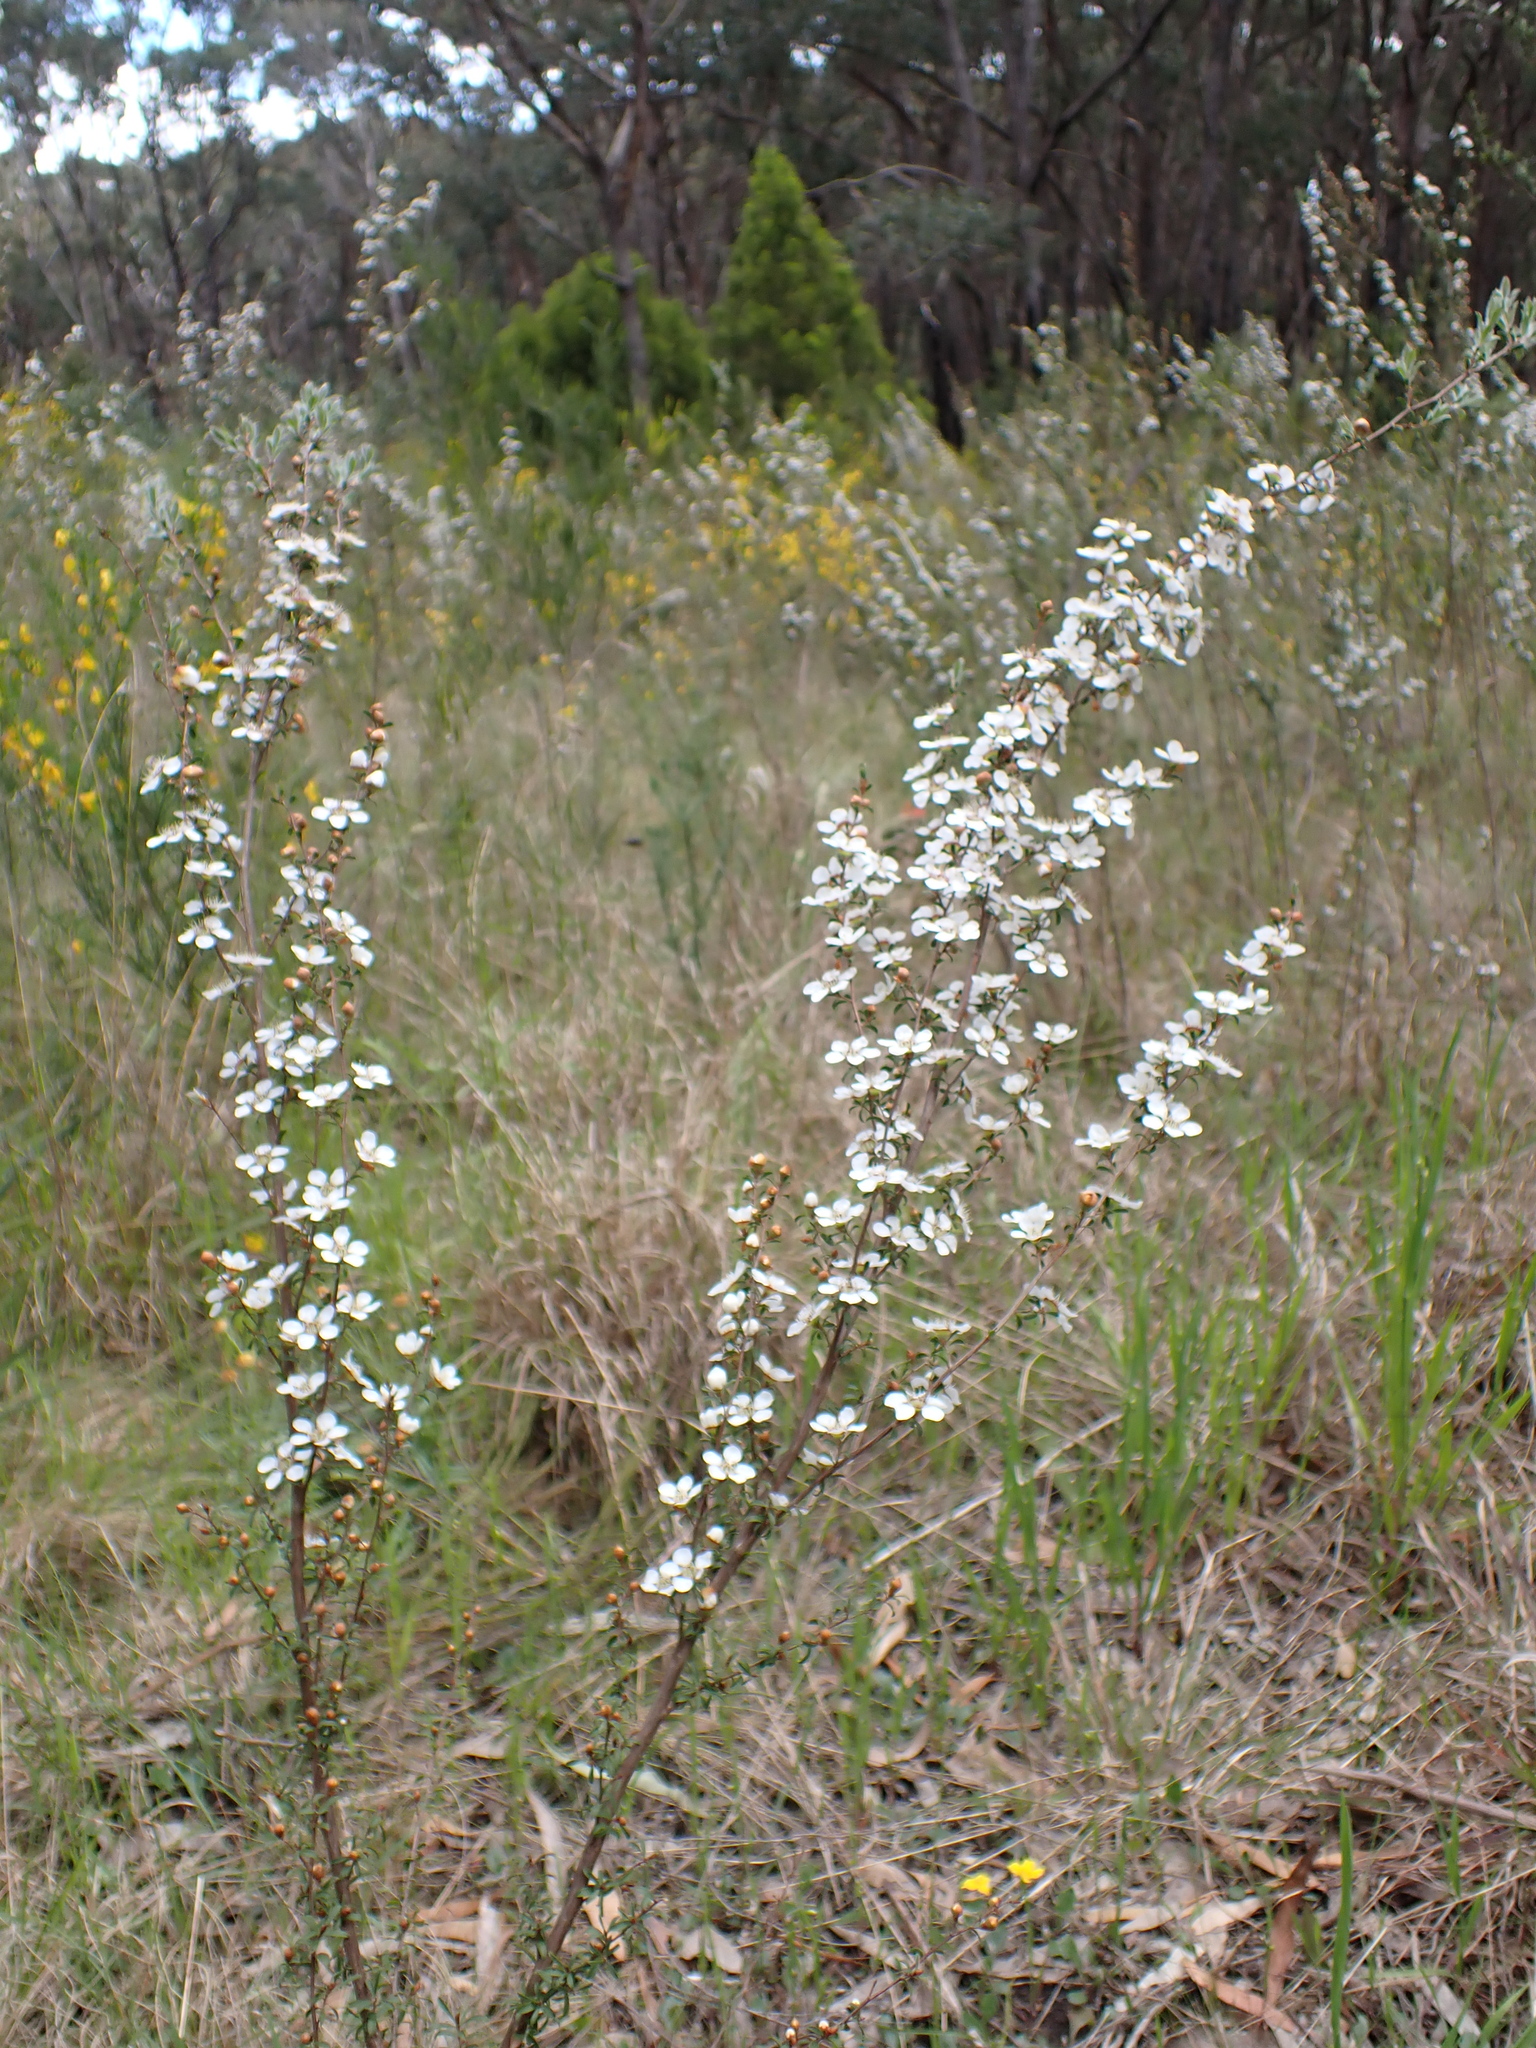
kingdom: Plantae
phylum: Tracheophyta
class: Magnoliopsida
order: Myrtales
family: Myrtaceae
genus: Leptospermum
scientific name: Leptospermum myrsinoides
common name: Heath teatree
